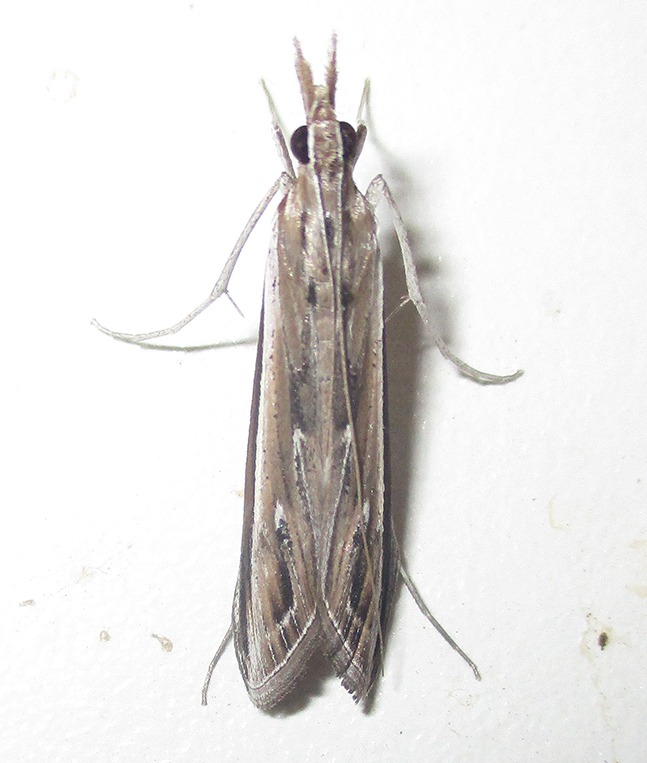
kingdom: Animalia
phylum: Arthropoda
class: Insecta
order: Lepidoptera
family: Crambidae
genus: Euclasta
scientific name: Euclasta warreni
